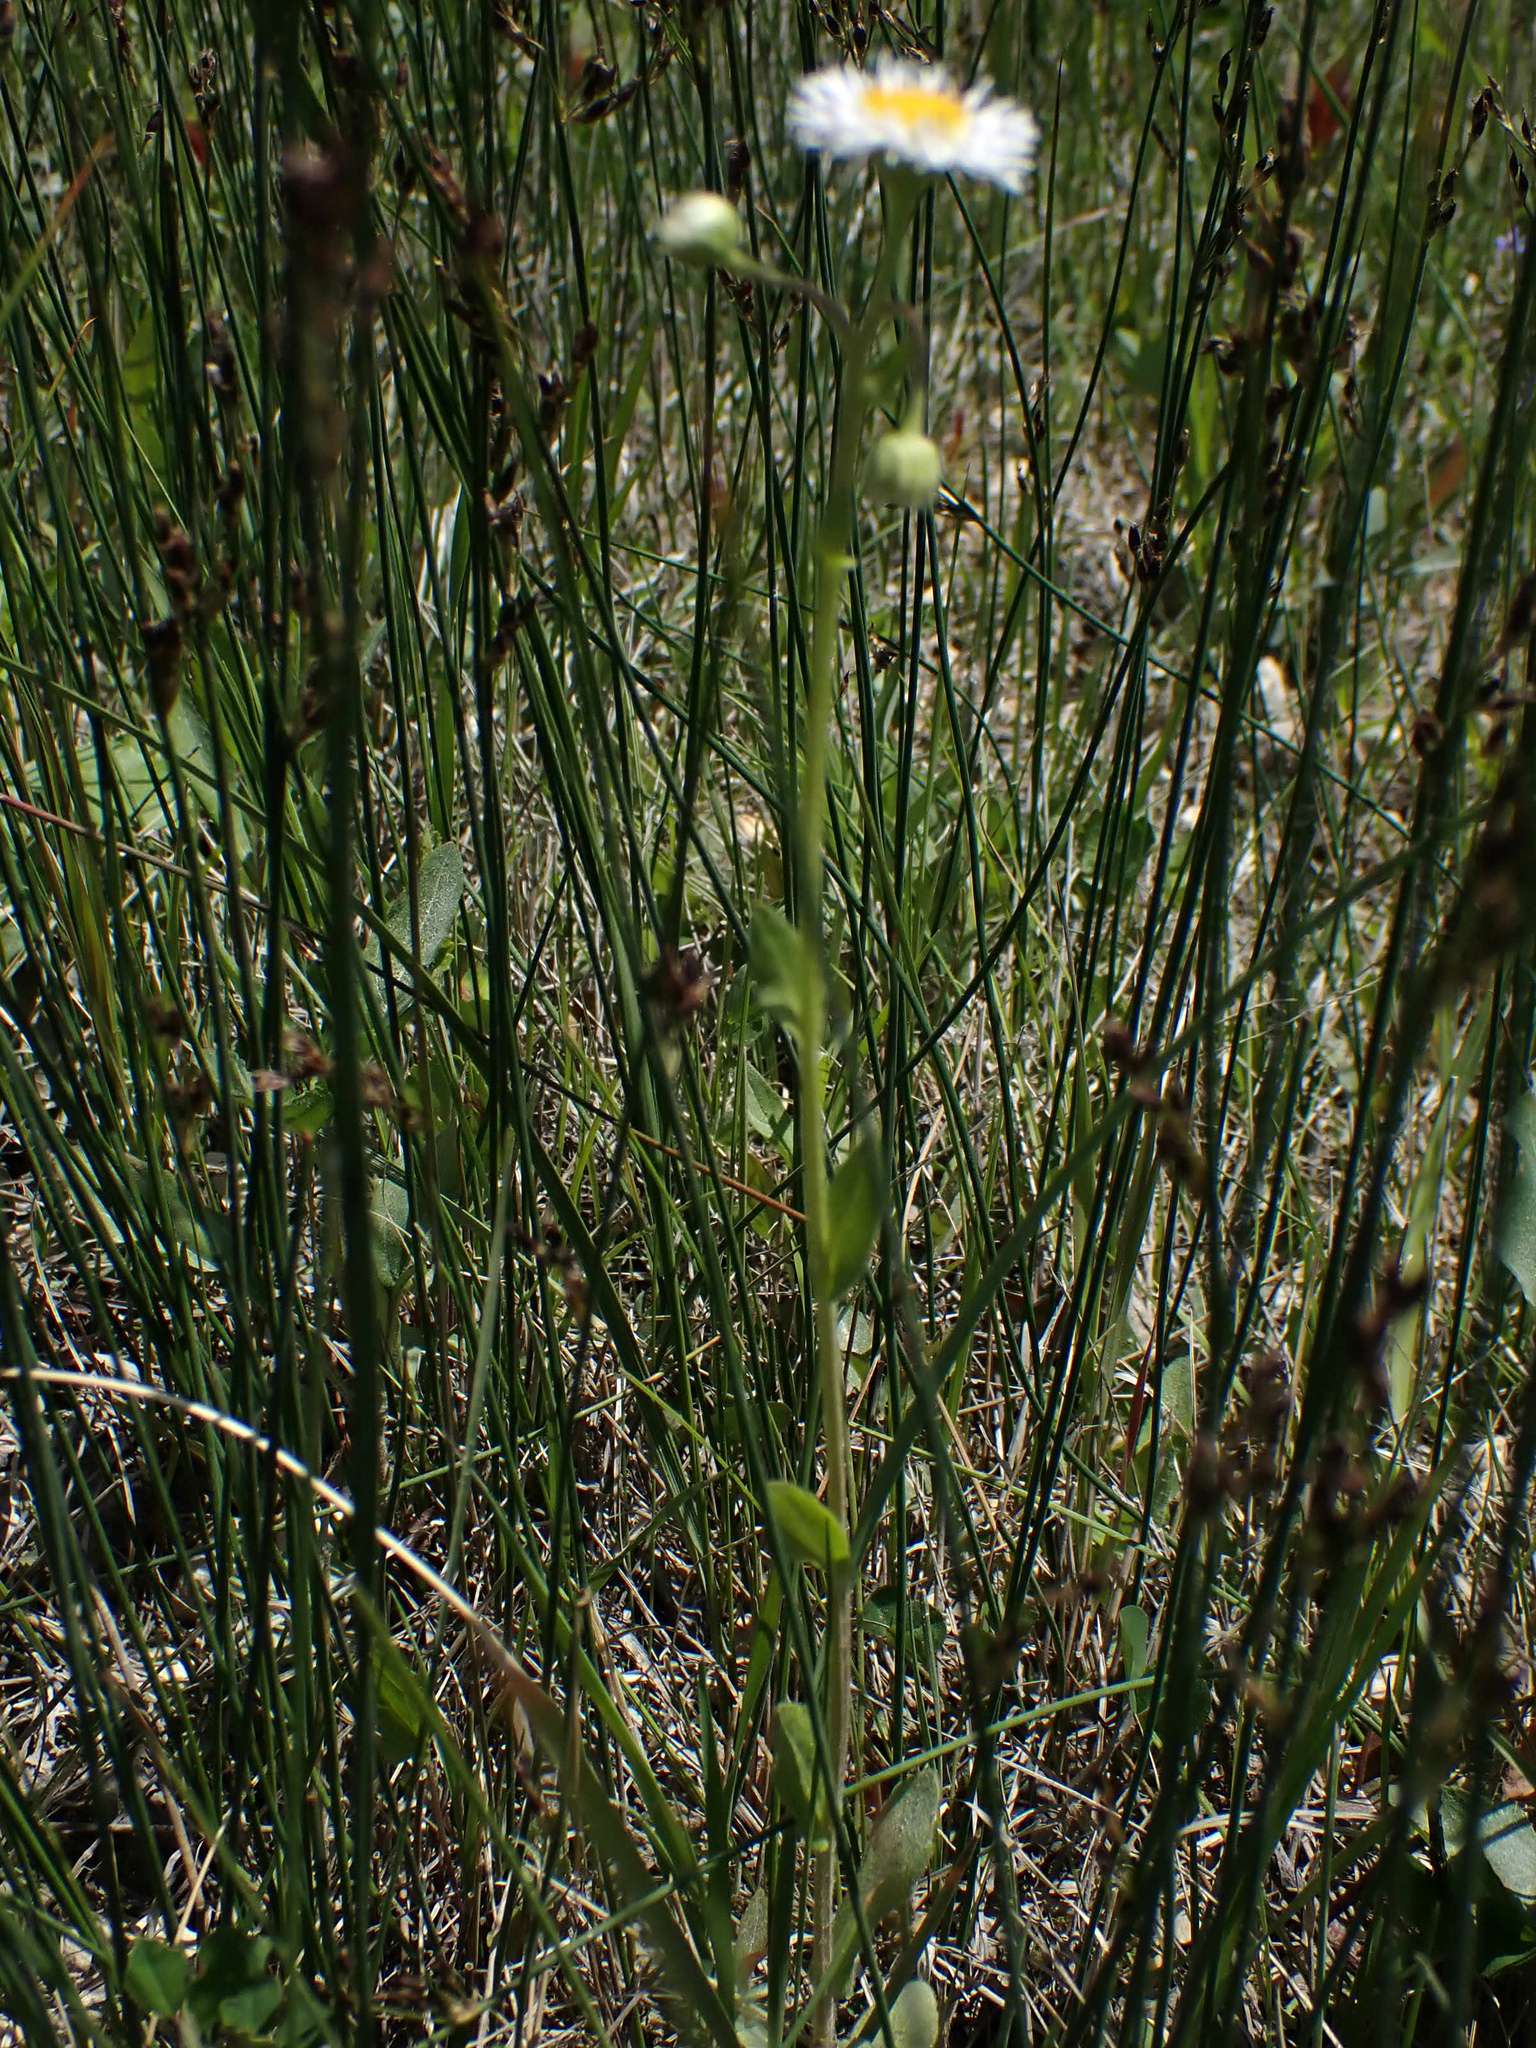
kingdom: Plantae
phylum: Tracheophyta
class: Magnoliopsida
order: Asterales
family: Asteraceae
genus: Erigeron
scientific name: Erigeron strigosus
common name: Common eastern fleabane
